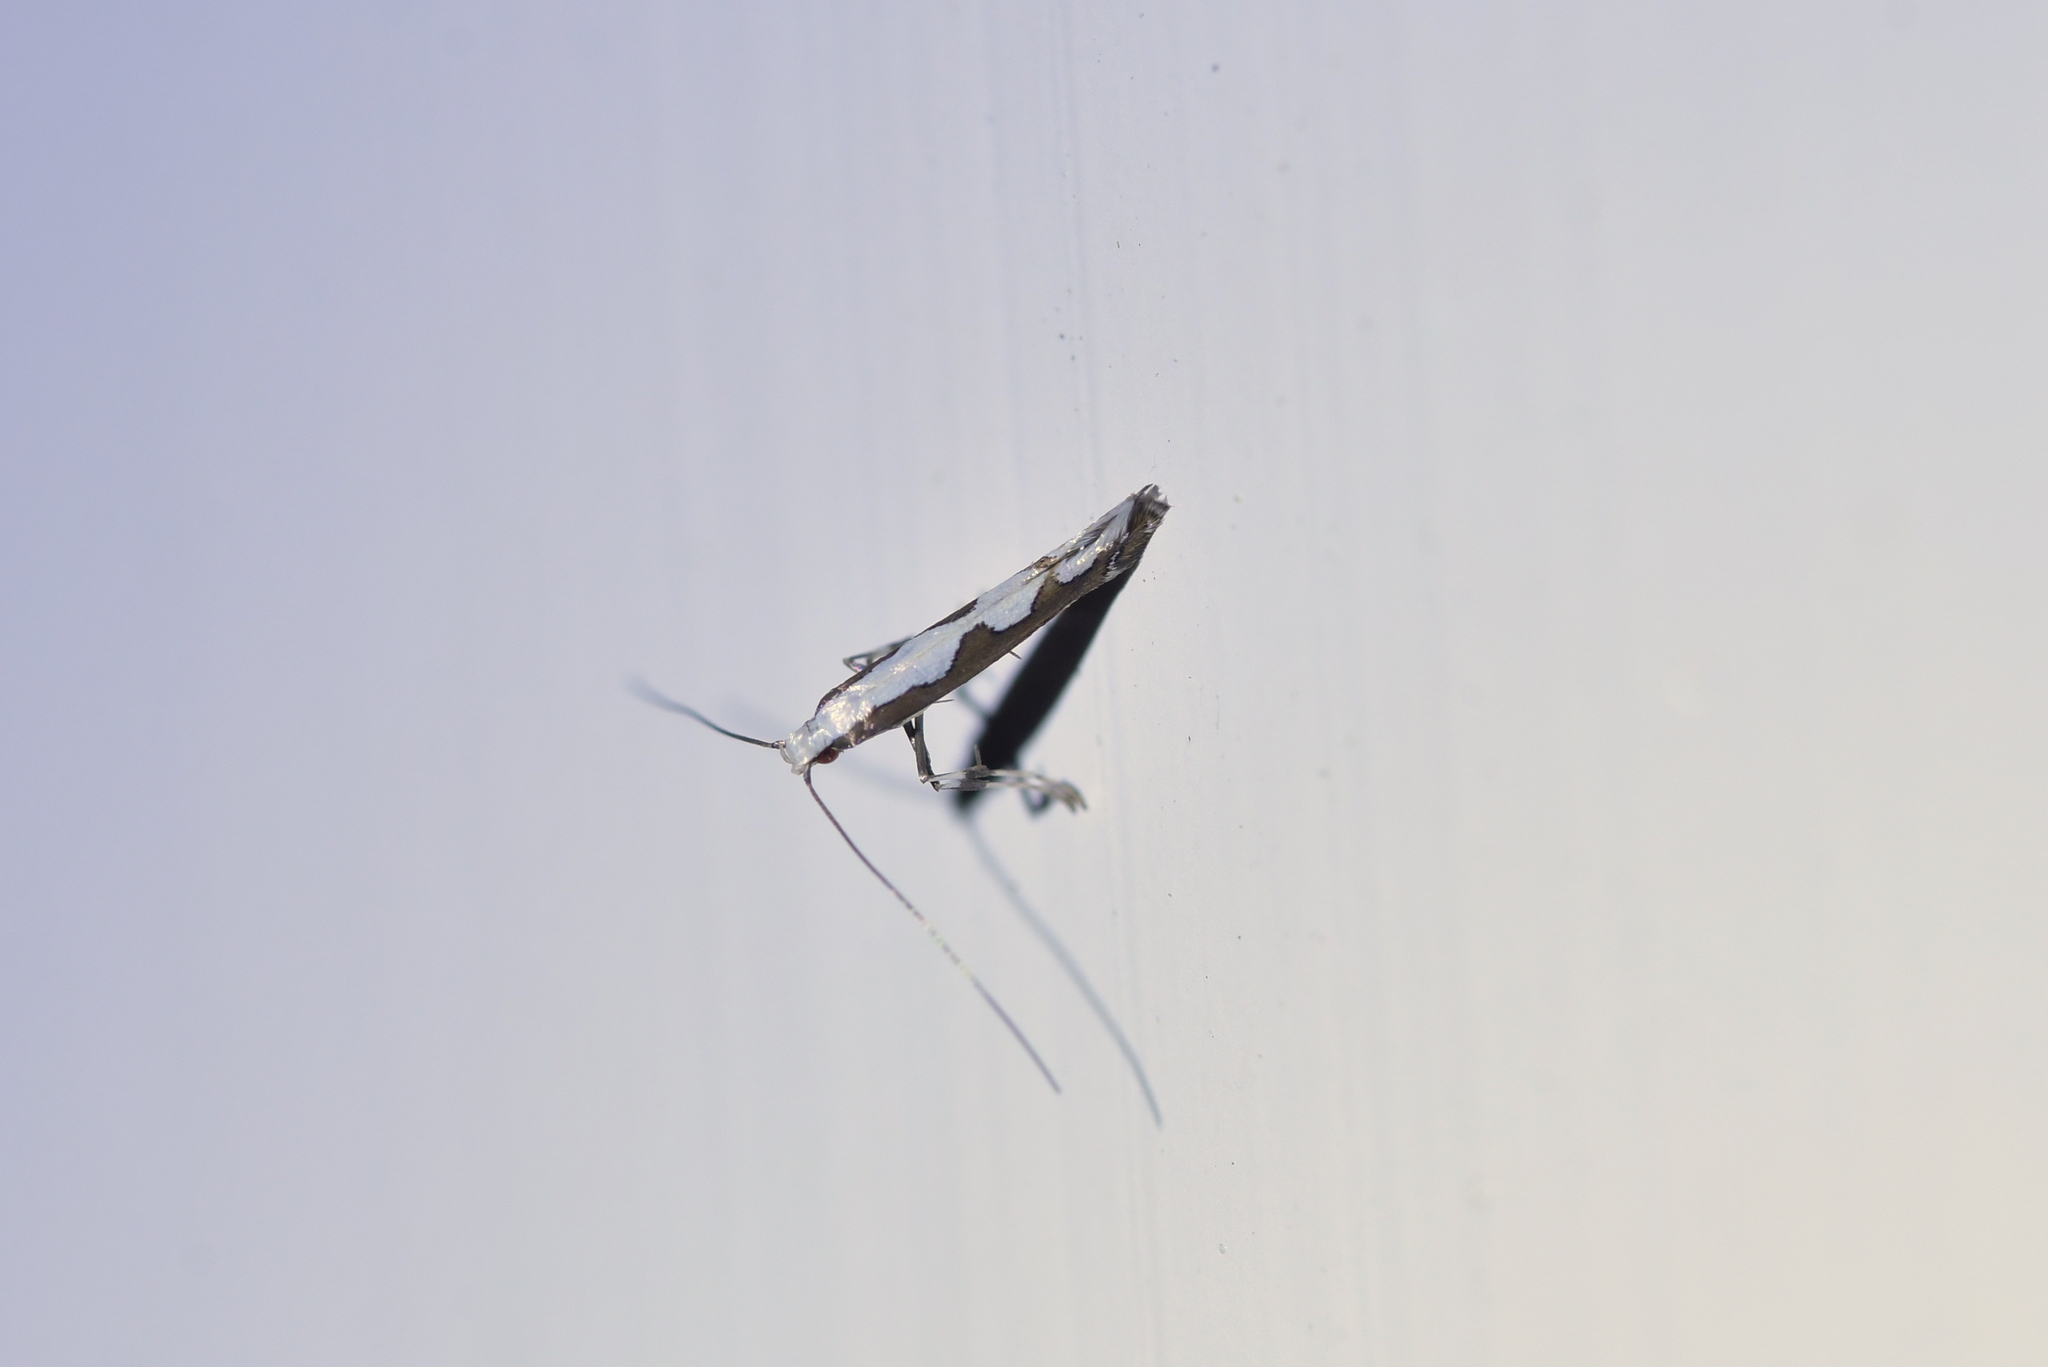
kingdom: Animalia
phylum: Arthropoda
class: Insecta
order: Lepidoptera
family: Gracillariidae
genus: Dialectica
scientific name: Dialectica scalariella
